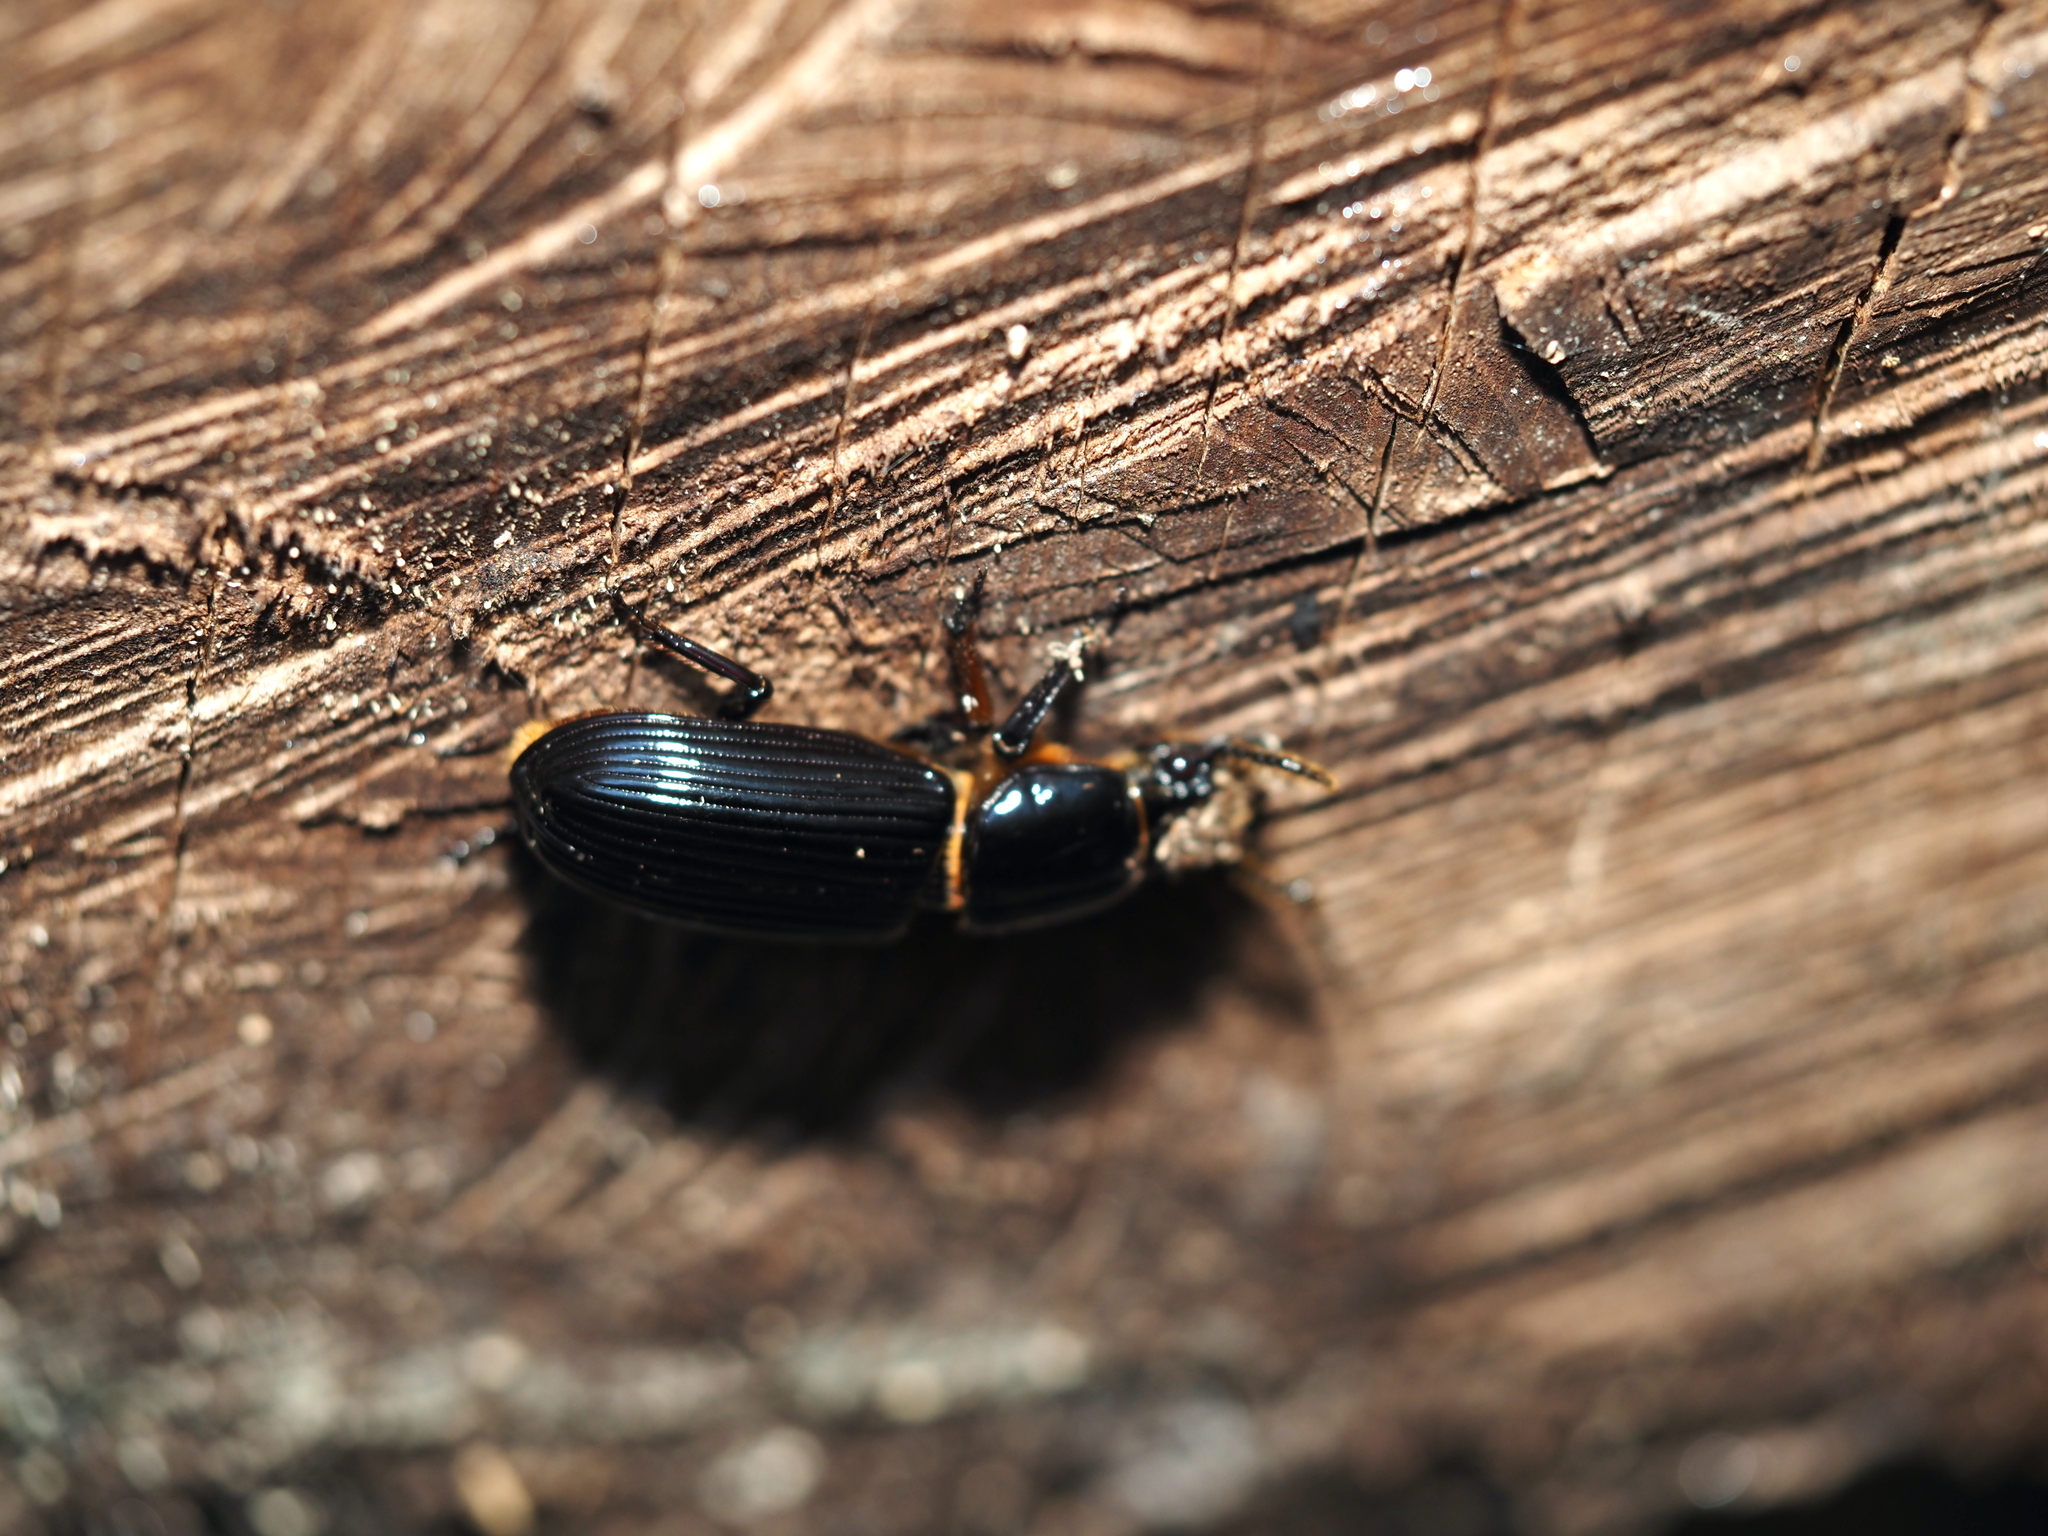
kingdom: Animalia
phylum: Arthropoda
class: Insecta
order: Coleoptera
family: Passalidae
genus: Odontotaenius
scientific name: Odontotaenius disjunctus
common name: Patent leather beetle
